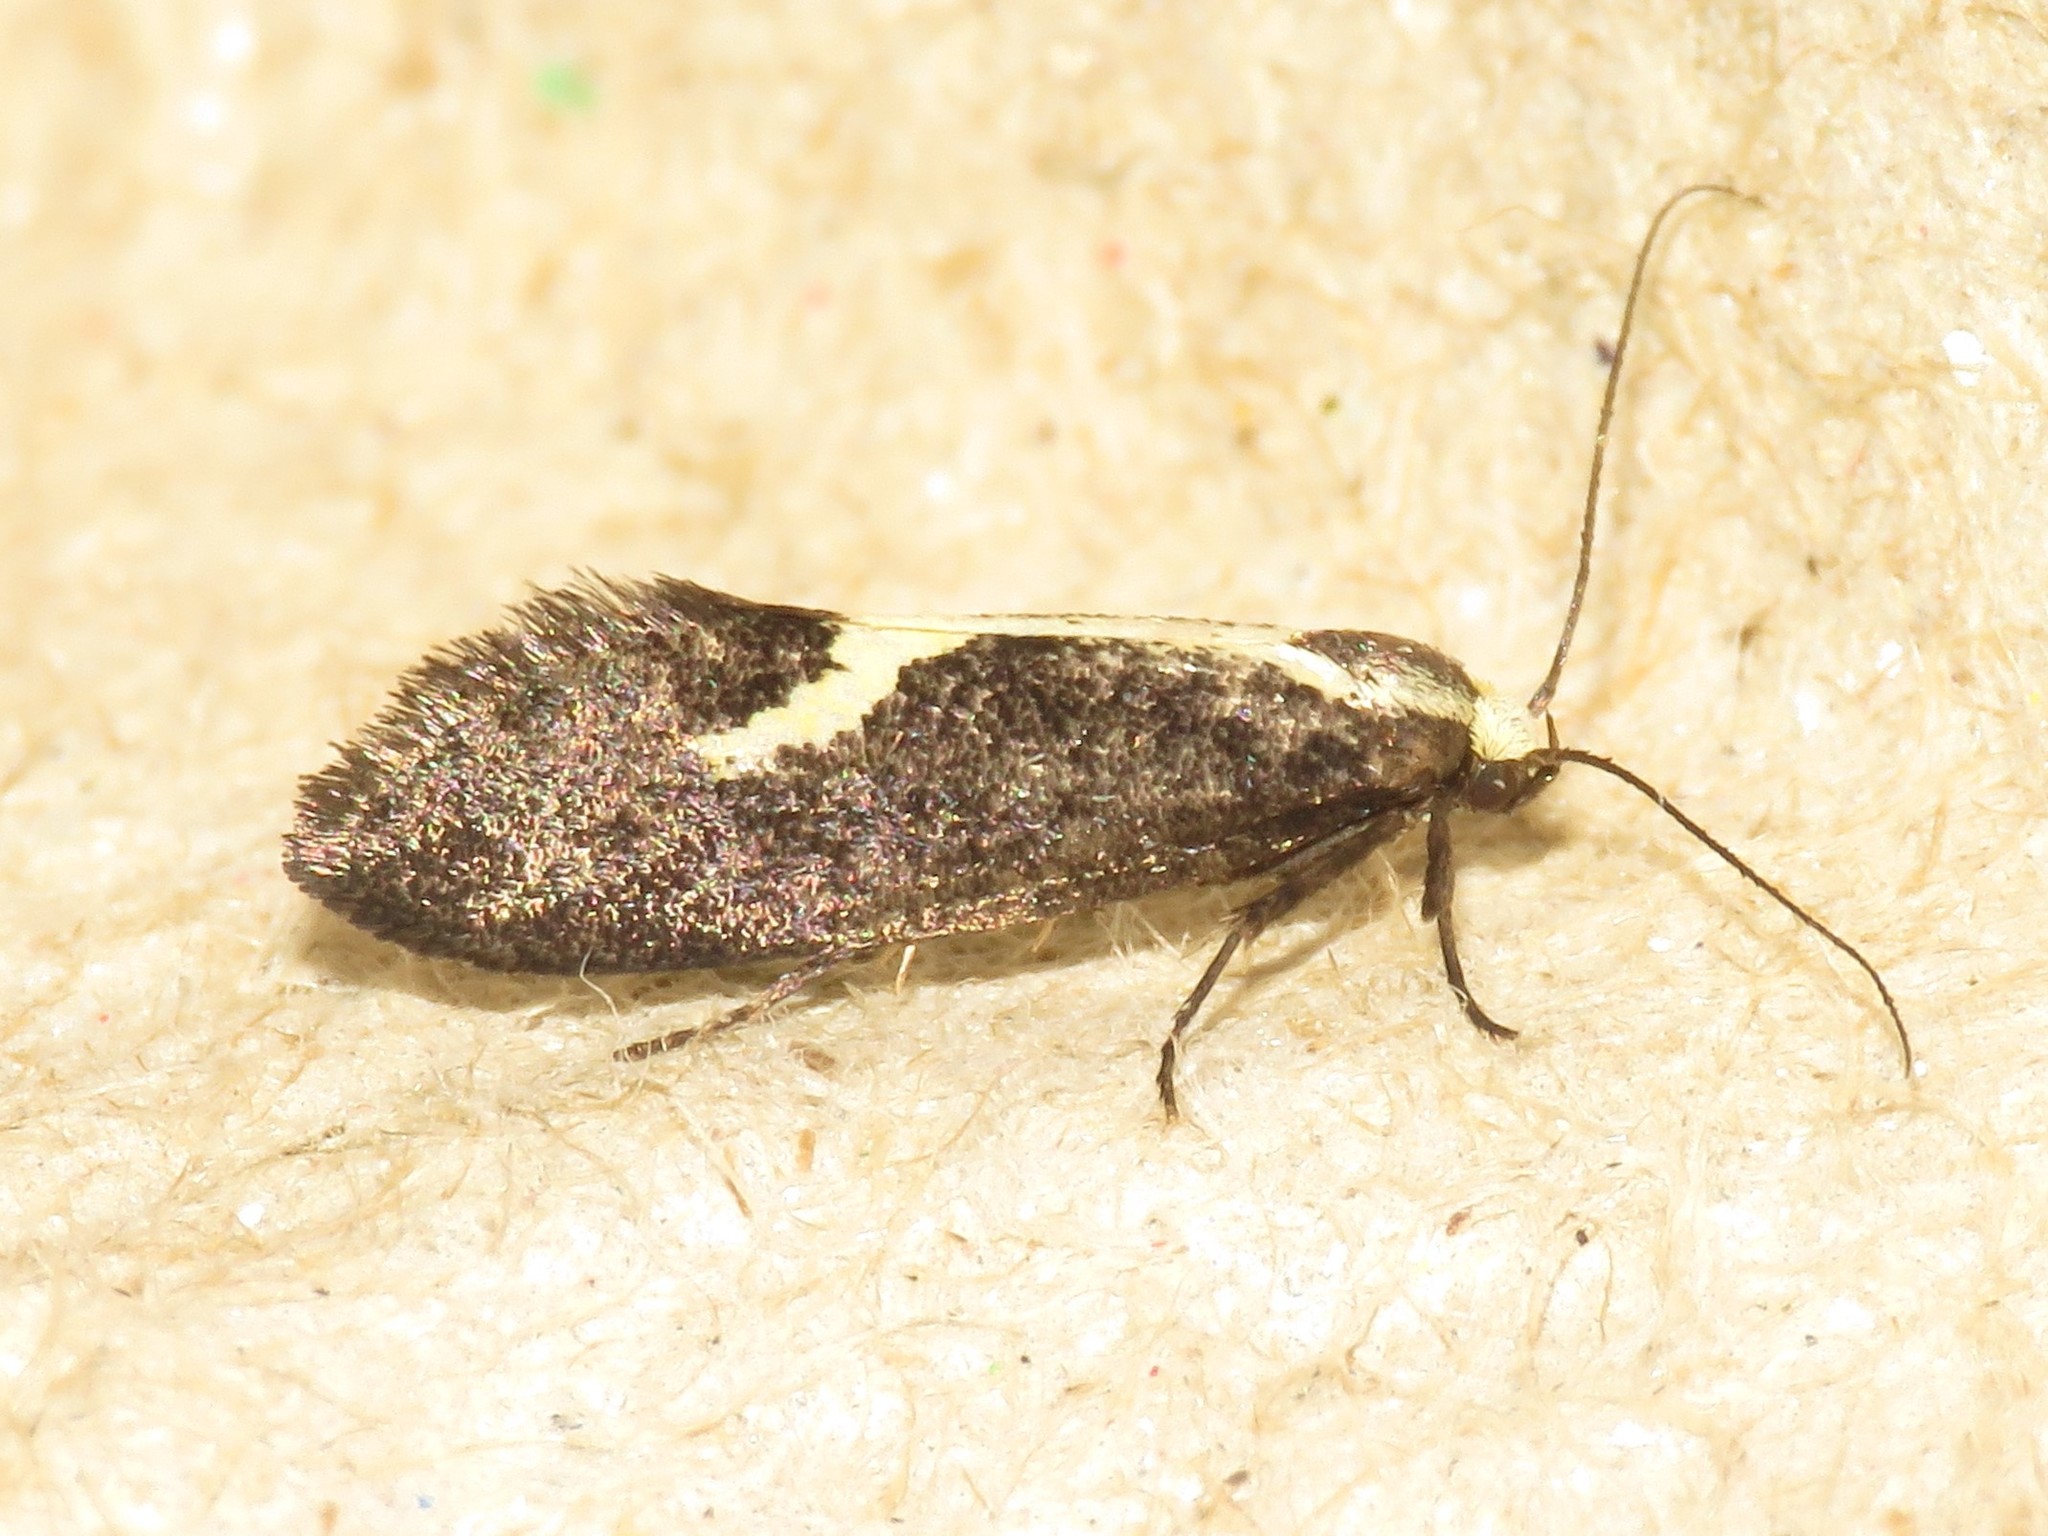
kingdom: Animalia
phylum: Arthropoda
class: Insecta
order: Lepidoptera
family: Oecophoridae
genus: Polix
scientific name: Polix coloradella
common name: Skunk moth
